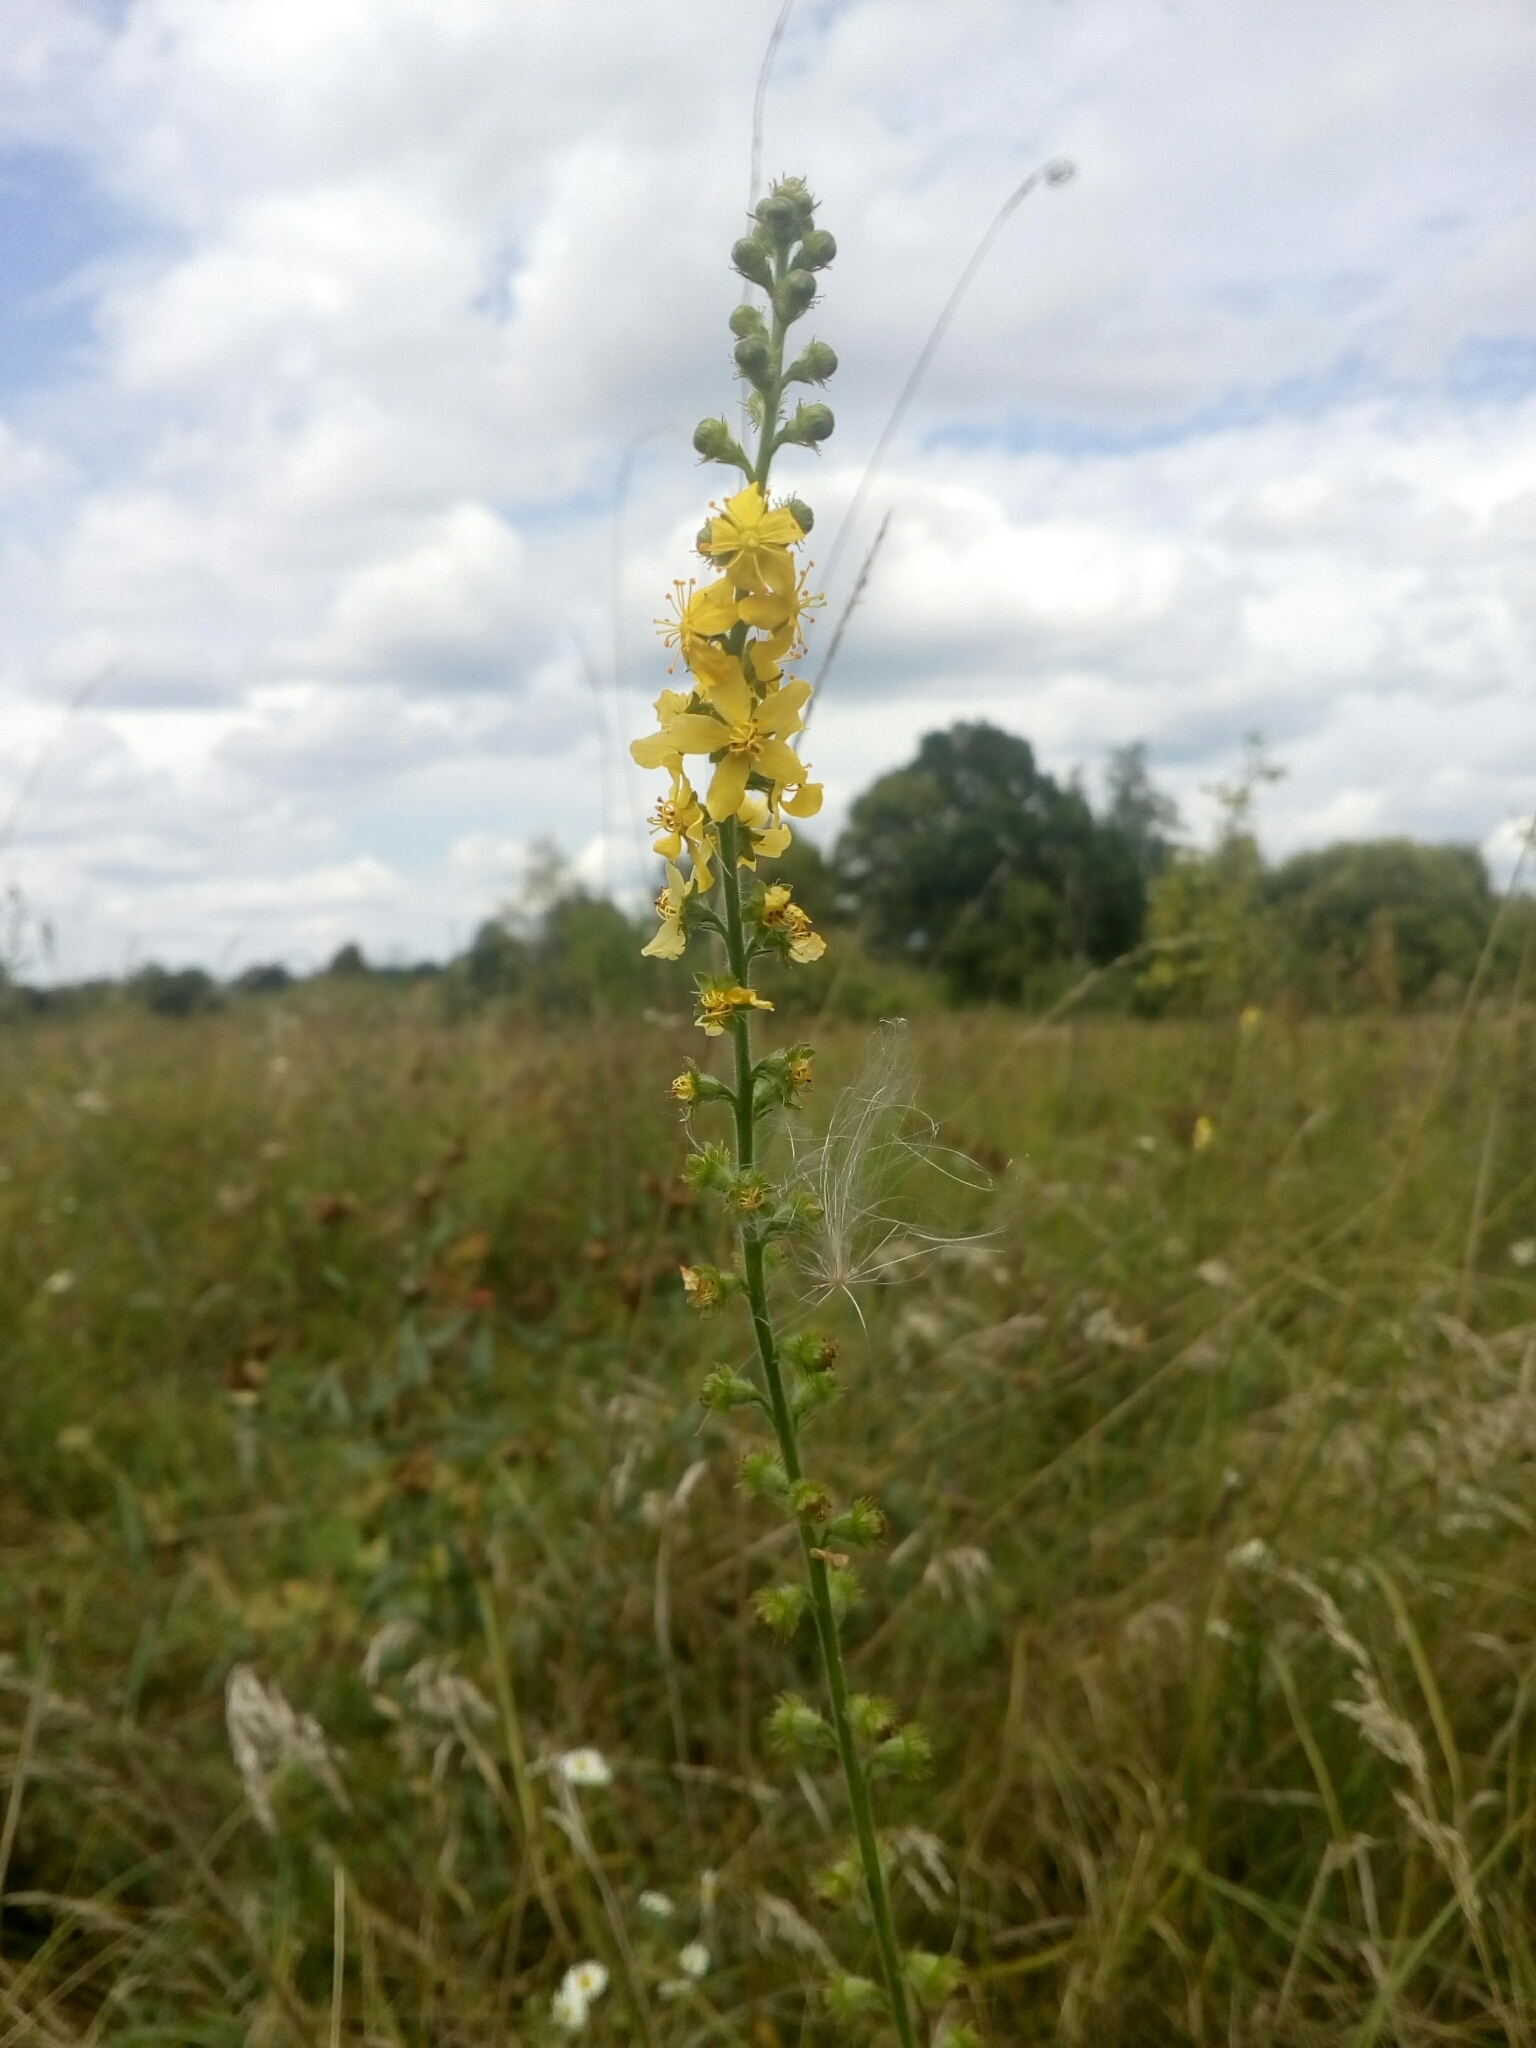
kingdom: Plantae
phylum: Tracheophyta
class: Magnoliopsida
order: Rosales
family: Rosaceae
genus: Agrimonia
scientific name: Agrimonia eupatoria
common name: Agrimony
